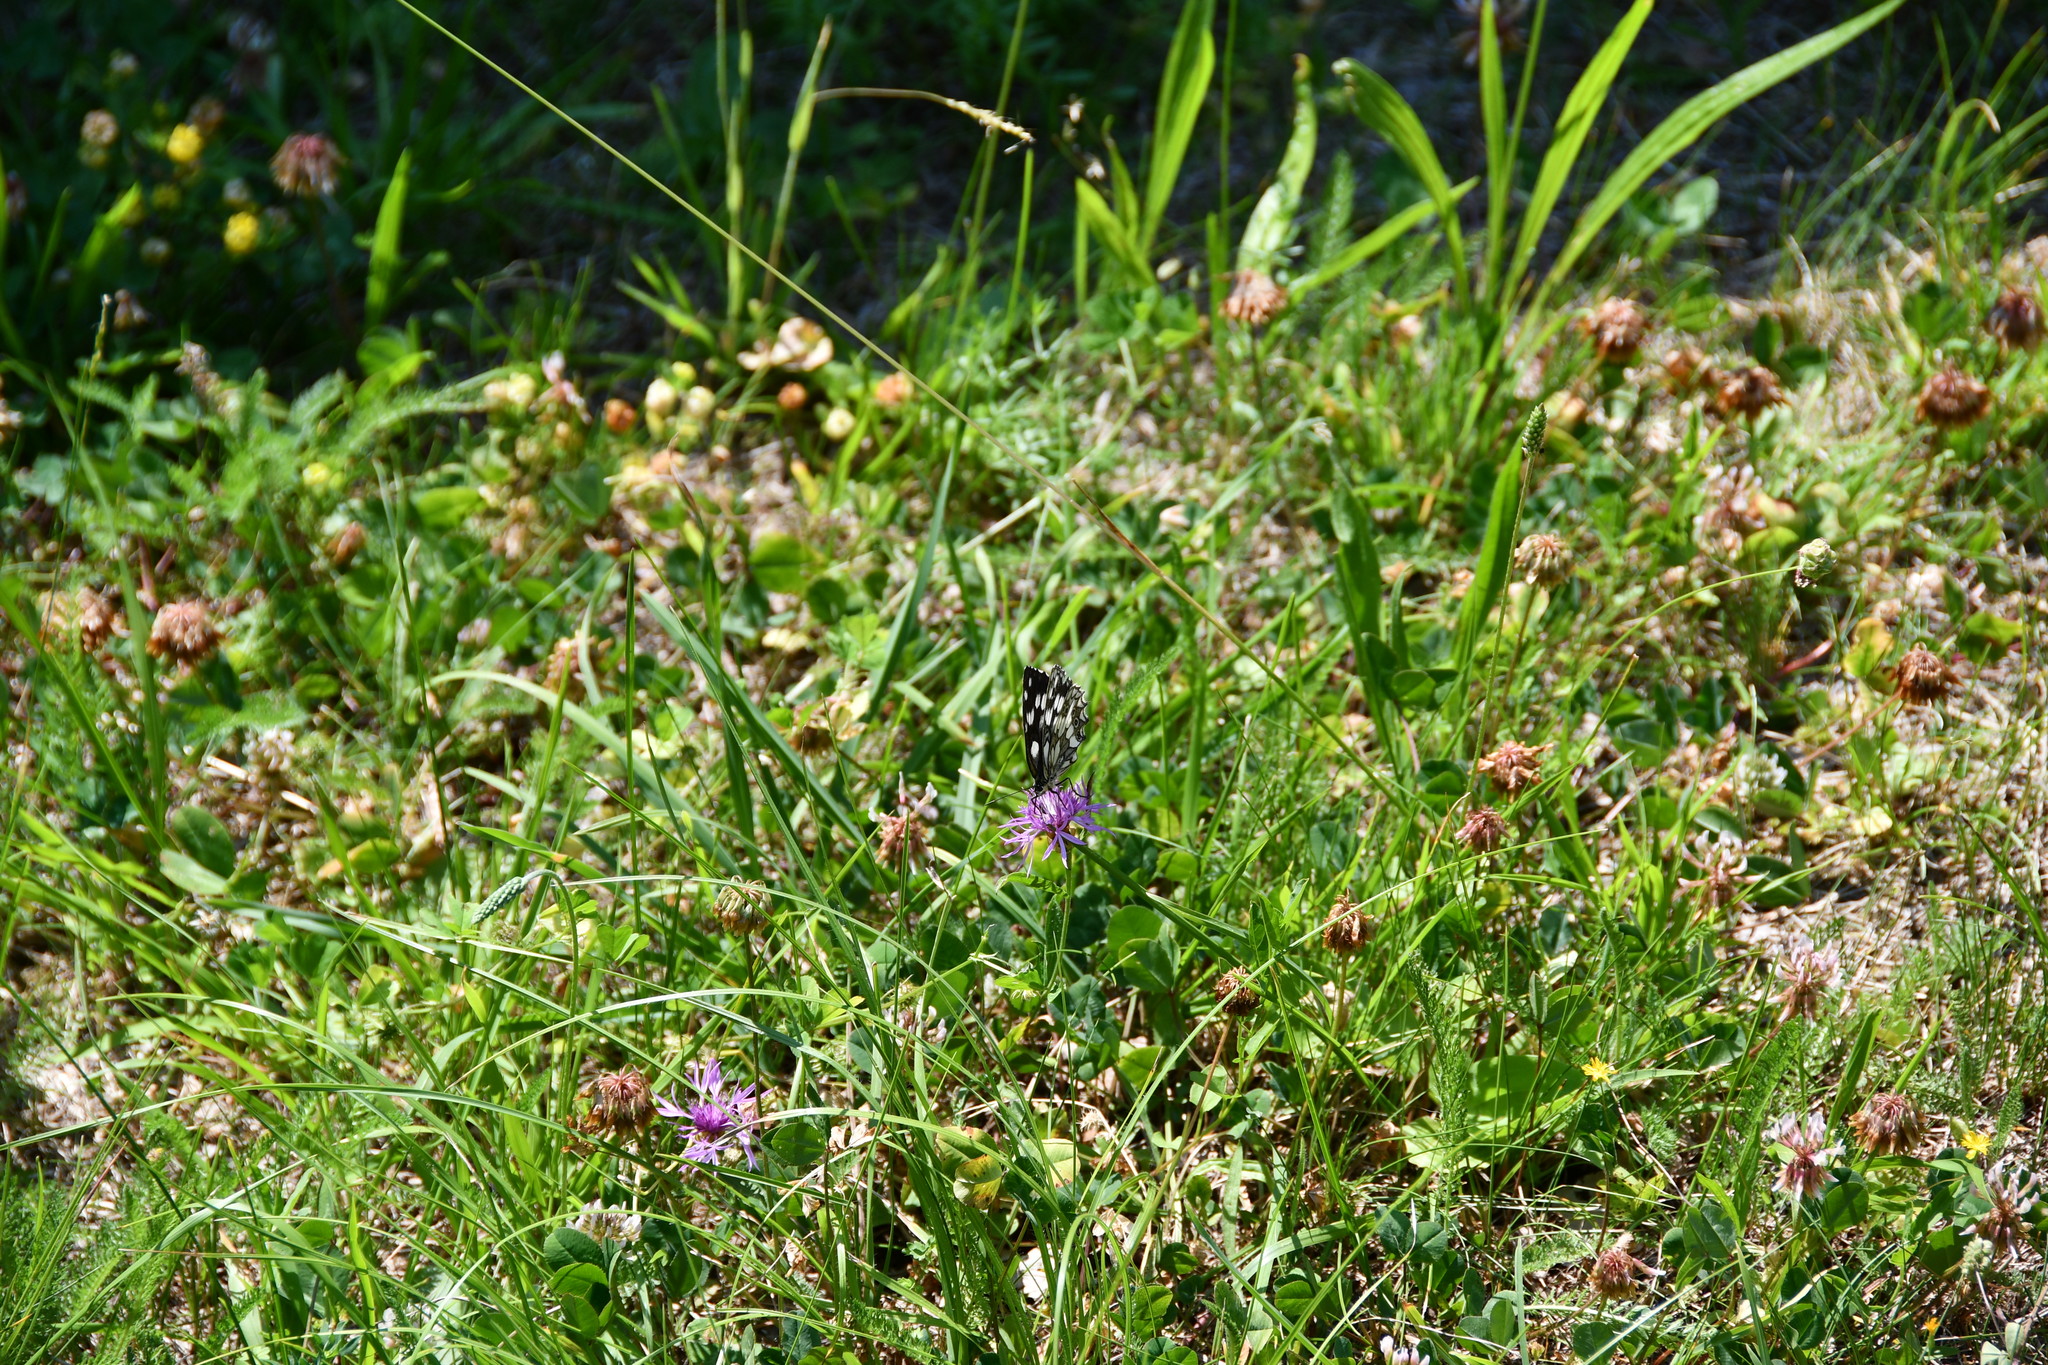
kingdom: Animalia
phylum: Arthropoda
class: Insecta
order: Lepidoptera
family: Nymphalidae
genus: Melanargia
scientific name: Melanargia galathea
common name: Marbled white
